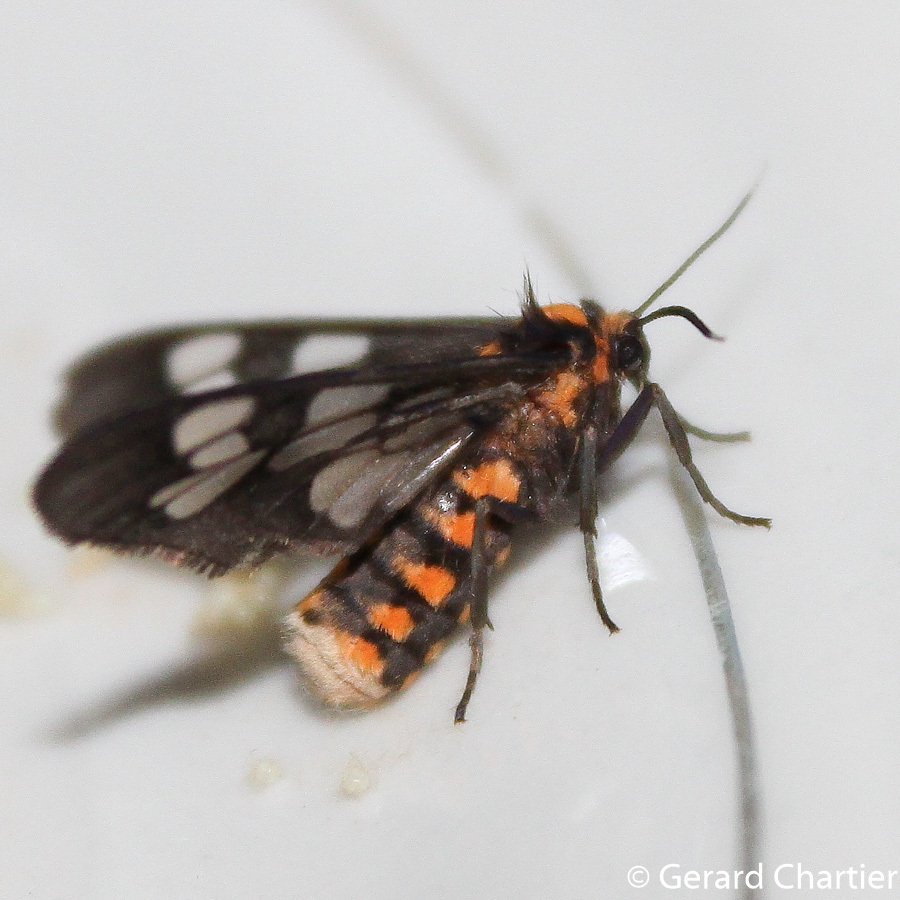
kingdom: Animalia
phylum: Arthropoda
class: Insecta
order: Lepidoptera
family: Erebidae
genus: Eressa
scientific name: Eressa confinis
